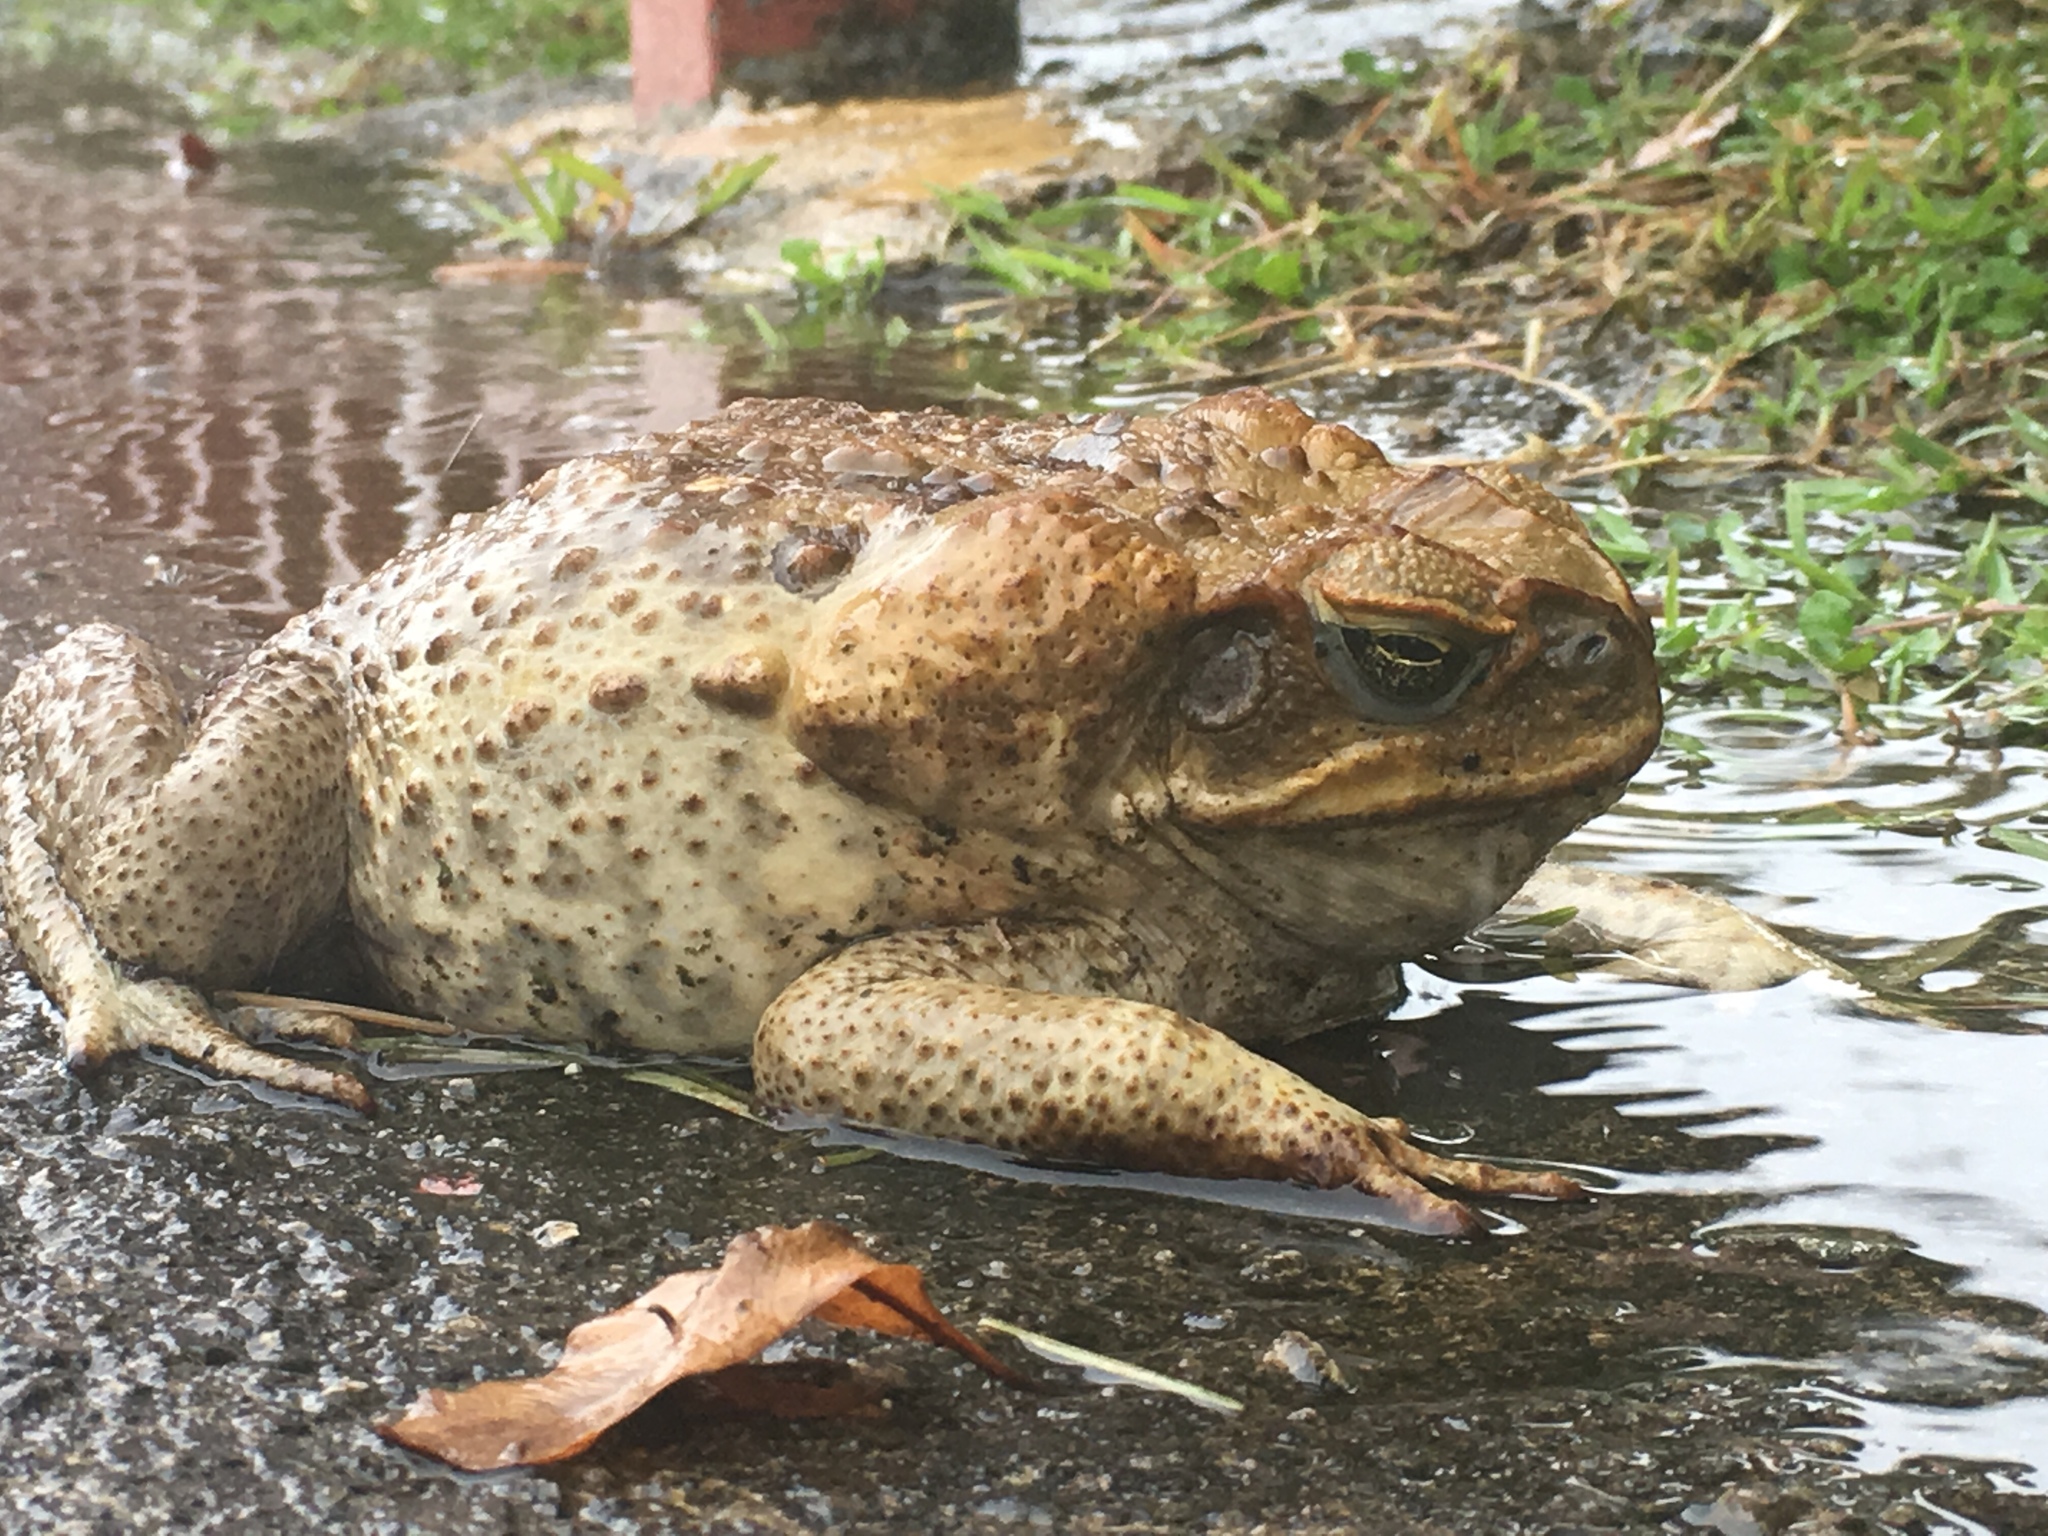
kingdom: Animalia
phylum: Chordata
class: Amphibia
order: Anura
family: Bufonidae
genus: Rhinella
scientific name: Rhinella marina
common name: Cane toad
